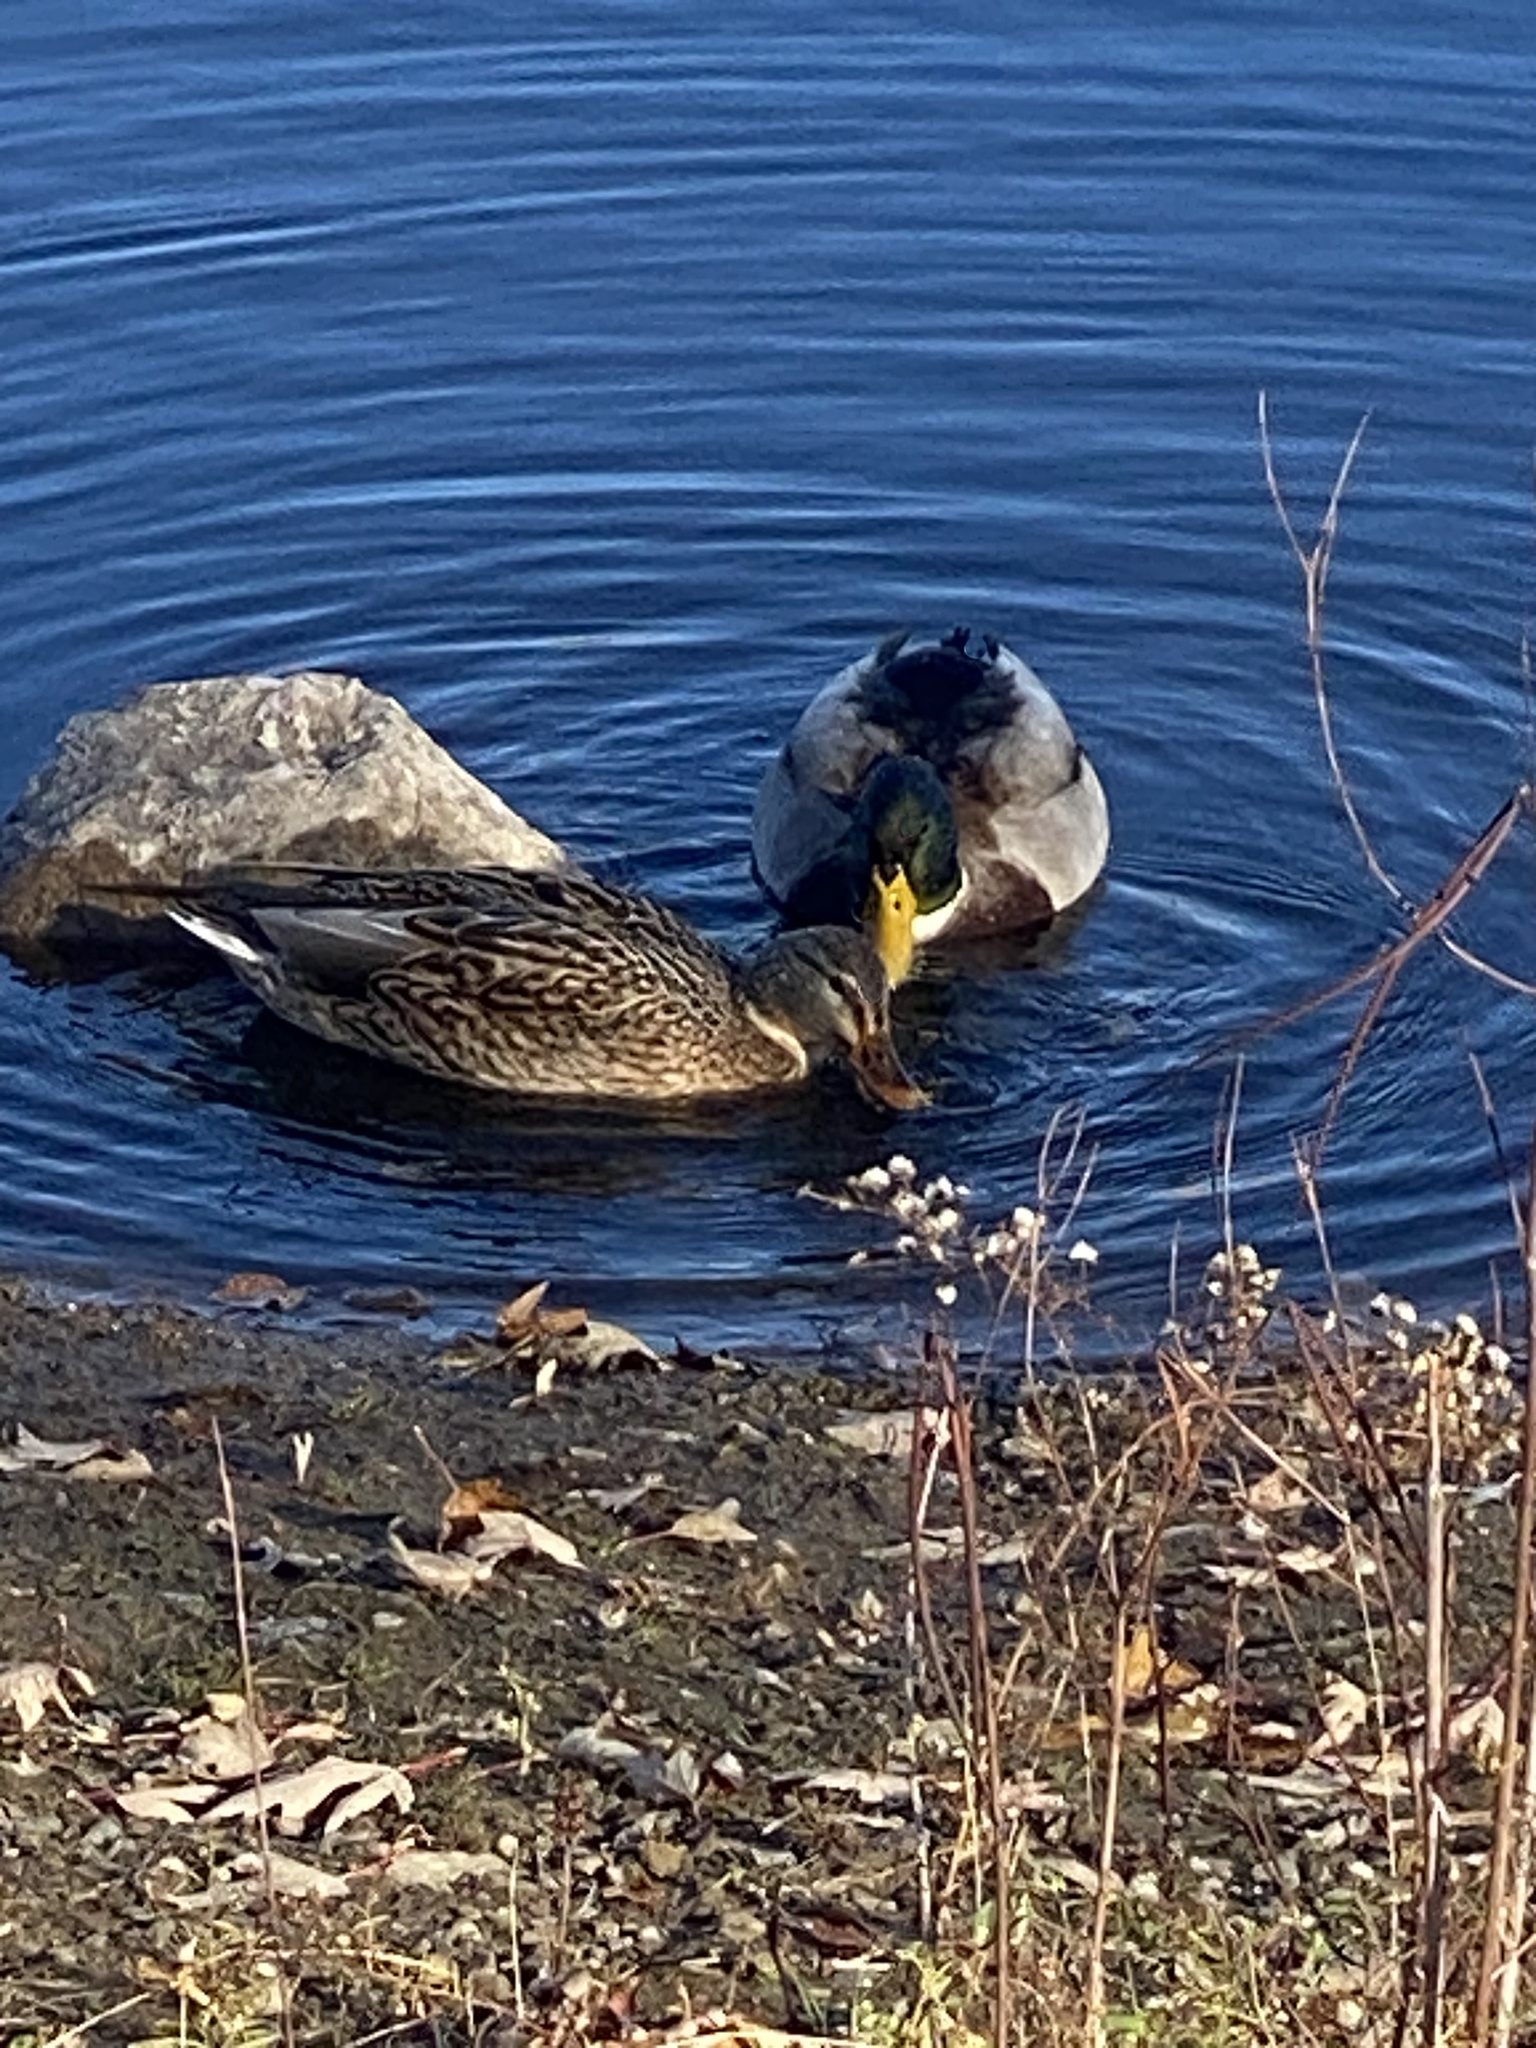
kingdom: Animalia
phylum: Chordata
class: Aves
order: Anseriformes
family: Anatidae
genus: Anas
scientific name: Anas platyrhynchos
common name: Mallard
